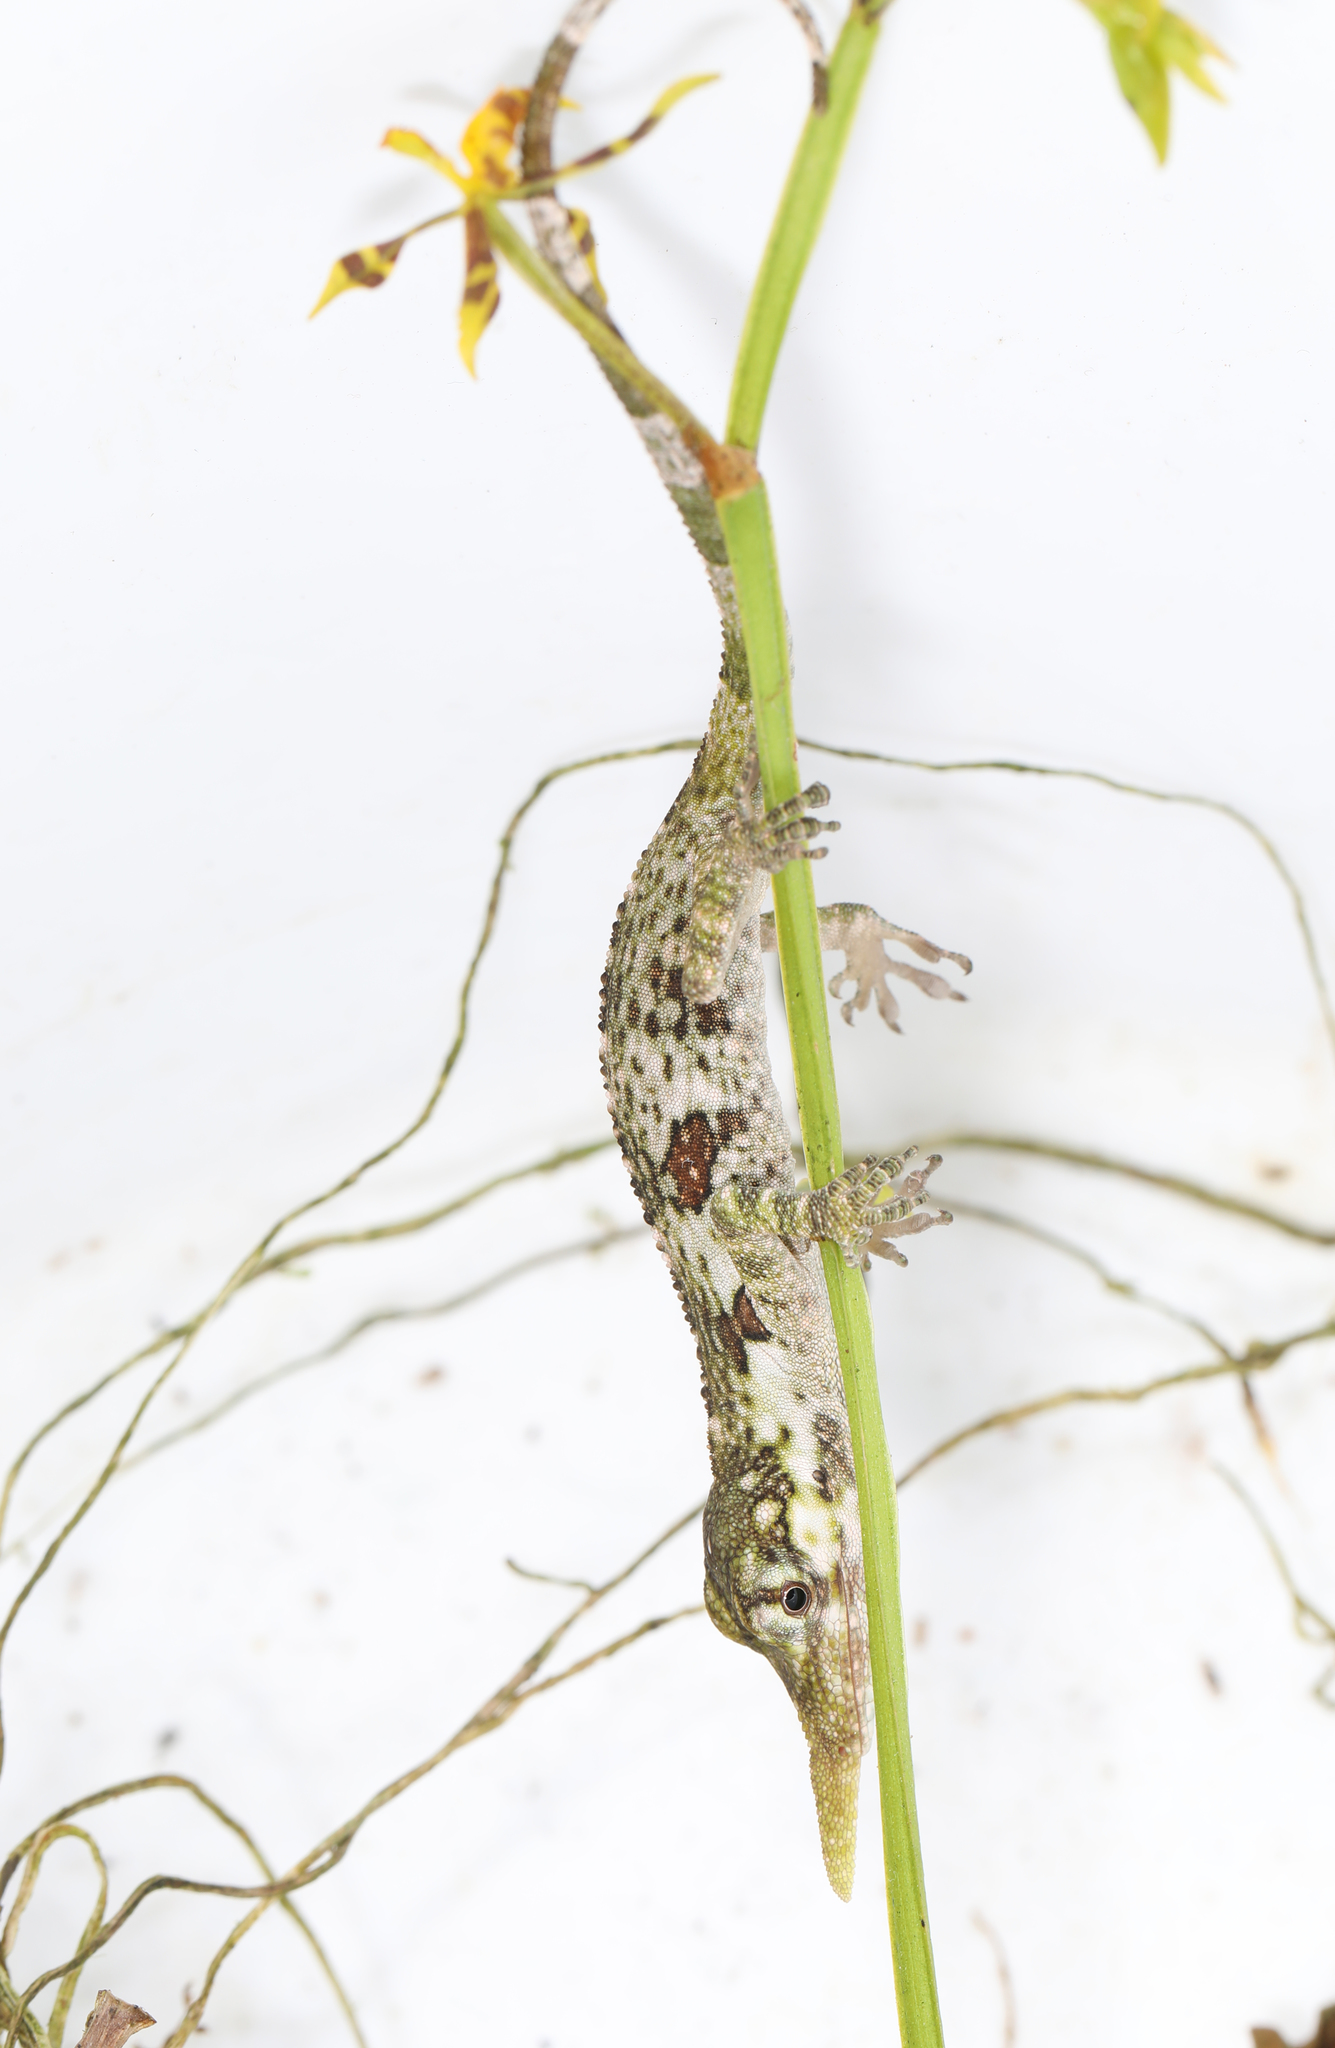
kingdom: Animalia
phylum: Chordata
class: Squamata
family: Dactyloidae
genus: Anolis
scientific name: Anolis proboscis
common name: Pinocchio anole
